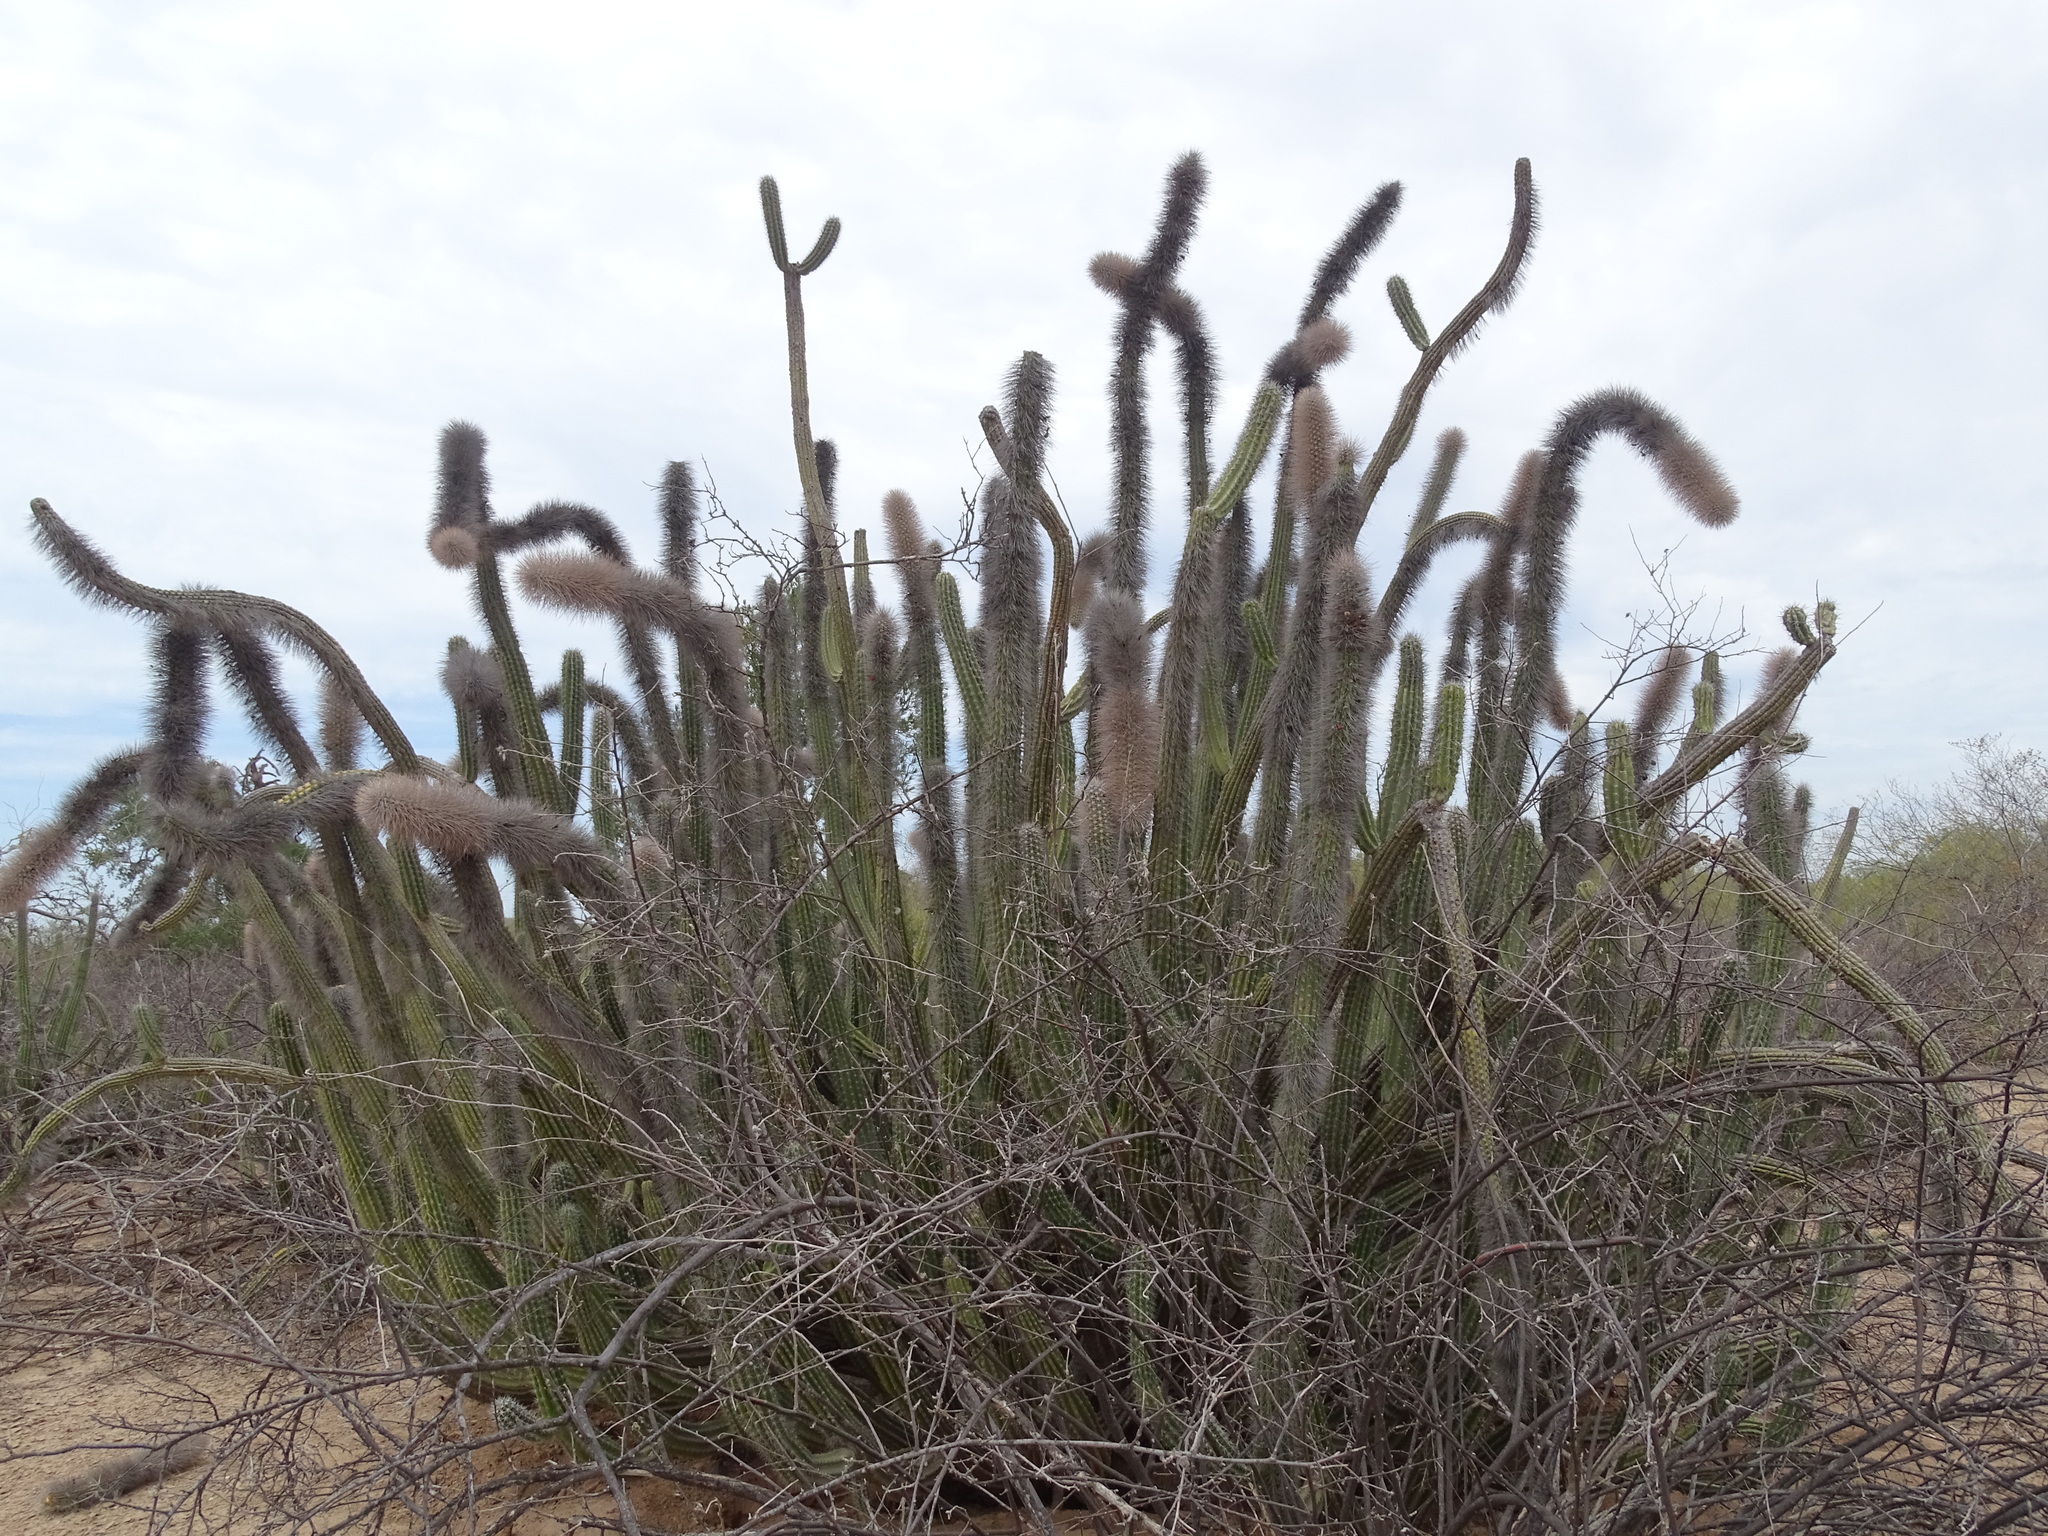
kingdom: Plantae
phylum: Tracheophyta
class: Magnoliopsida
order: Caryophyllales
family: Cactaceae
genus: Pachycereus
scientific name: Pachycereus schottii
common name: Senita cactus
